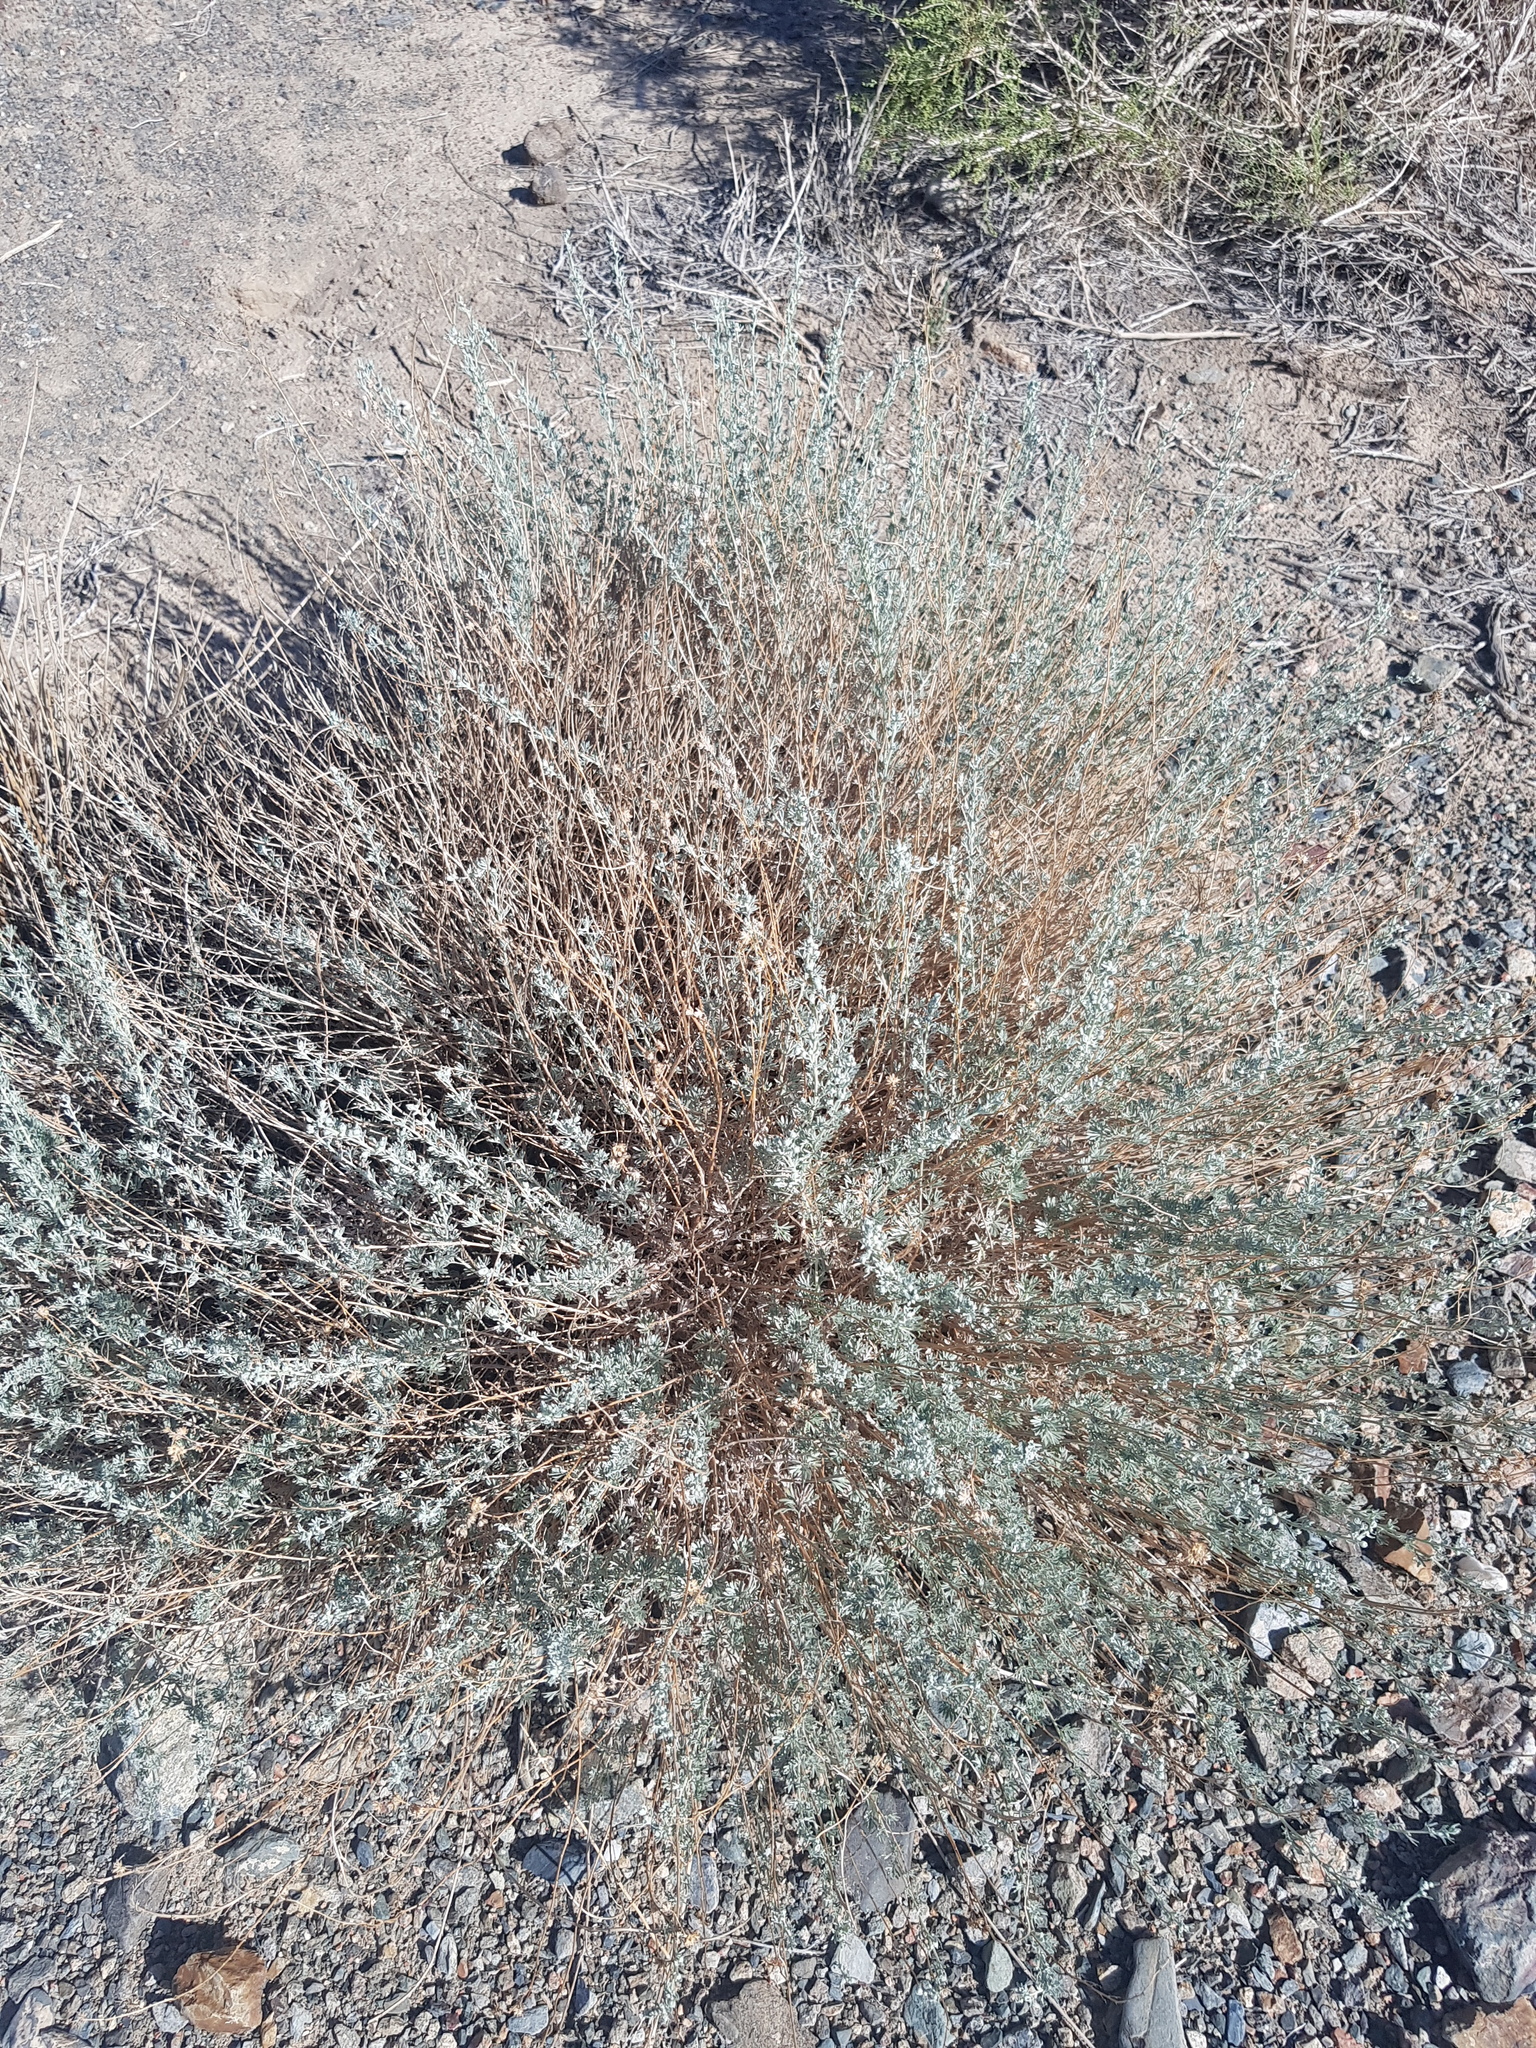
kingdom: Plantae
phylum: Tracheophyta
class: Magnoliopsida
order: Asterales
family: Asteraceae
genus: Artemisia
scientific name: Artemisia xerophytica
